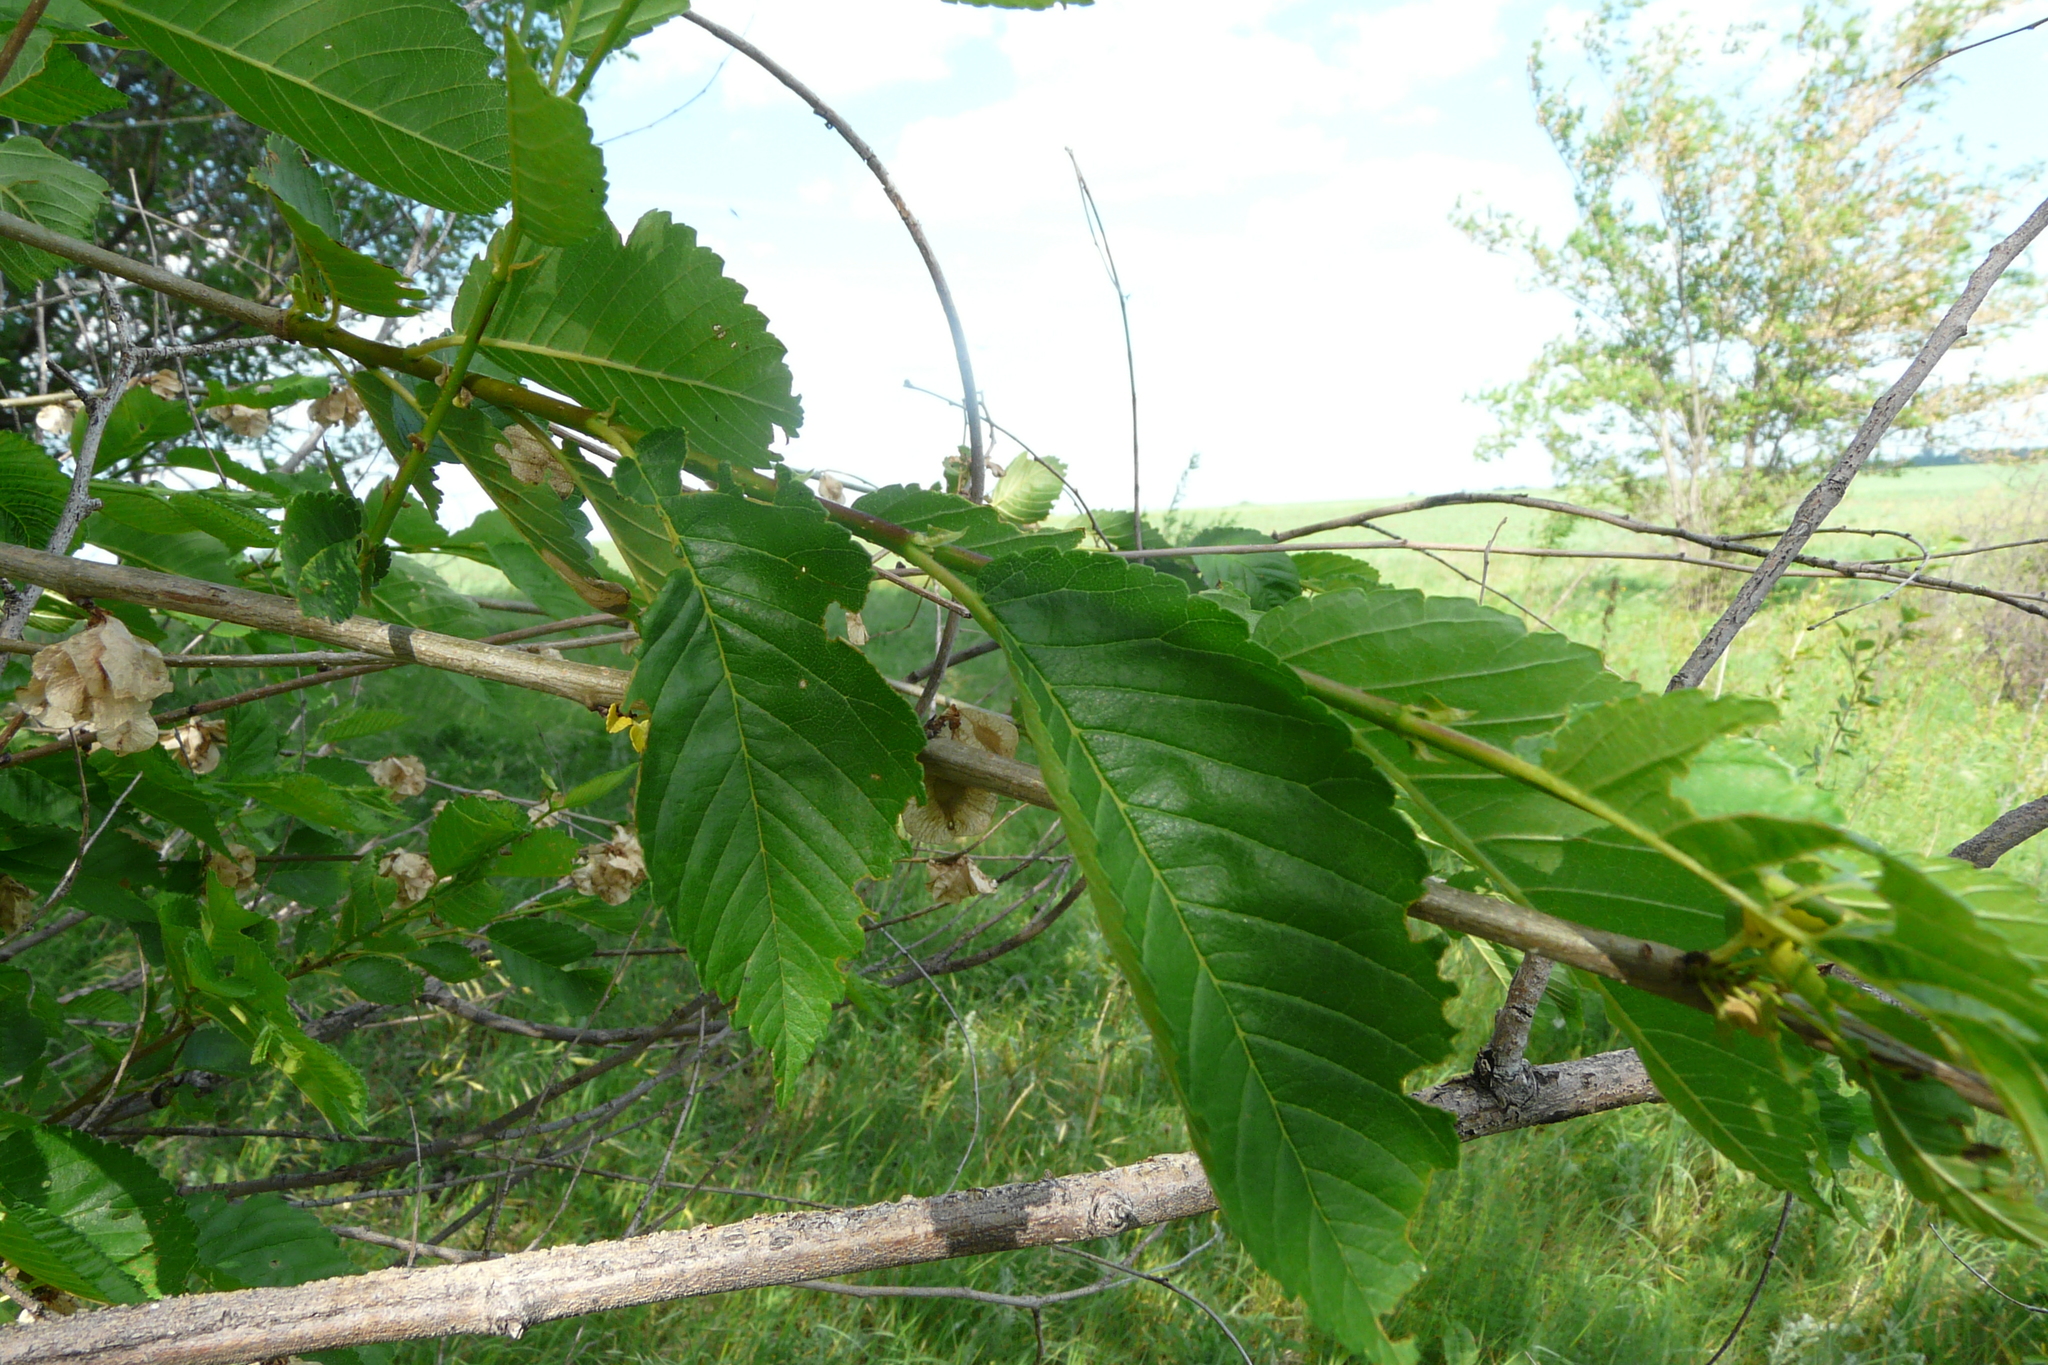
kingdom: Plantae
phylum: Tracheophyta
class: Magnoliopsida
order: Rosales
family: Ulmaceae
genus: Ulmus
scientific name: Ulmus minor
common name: Small-leaved elm
